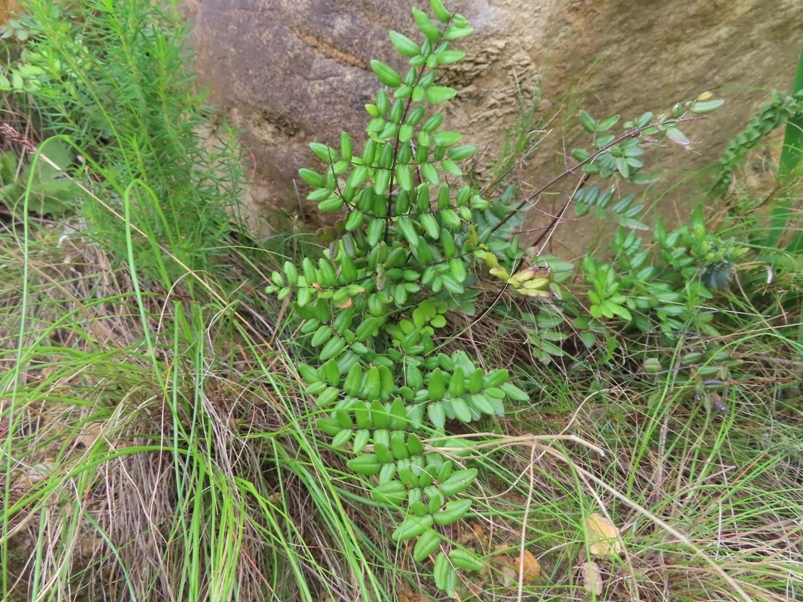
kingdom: Plantae
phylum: Tracheophyta
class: Polypodiopsida
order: Polypodiales
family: Pteridaceae
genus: Cheilanthes
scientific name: Cheilanthes viridis
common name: Green cliffbrake
